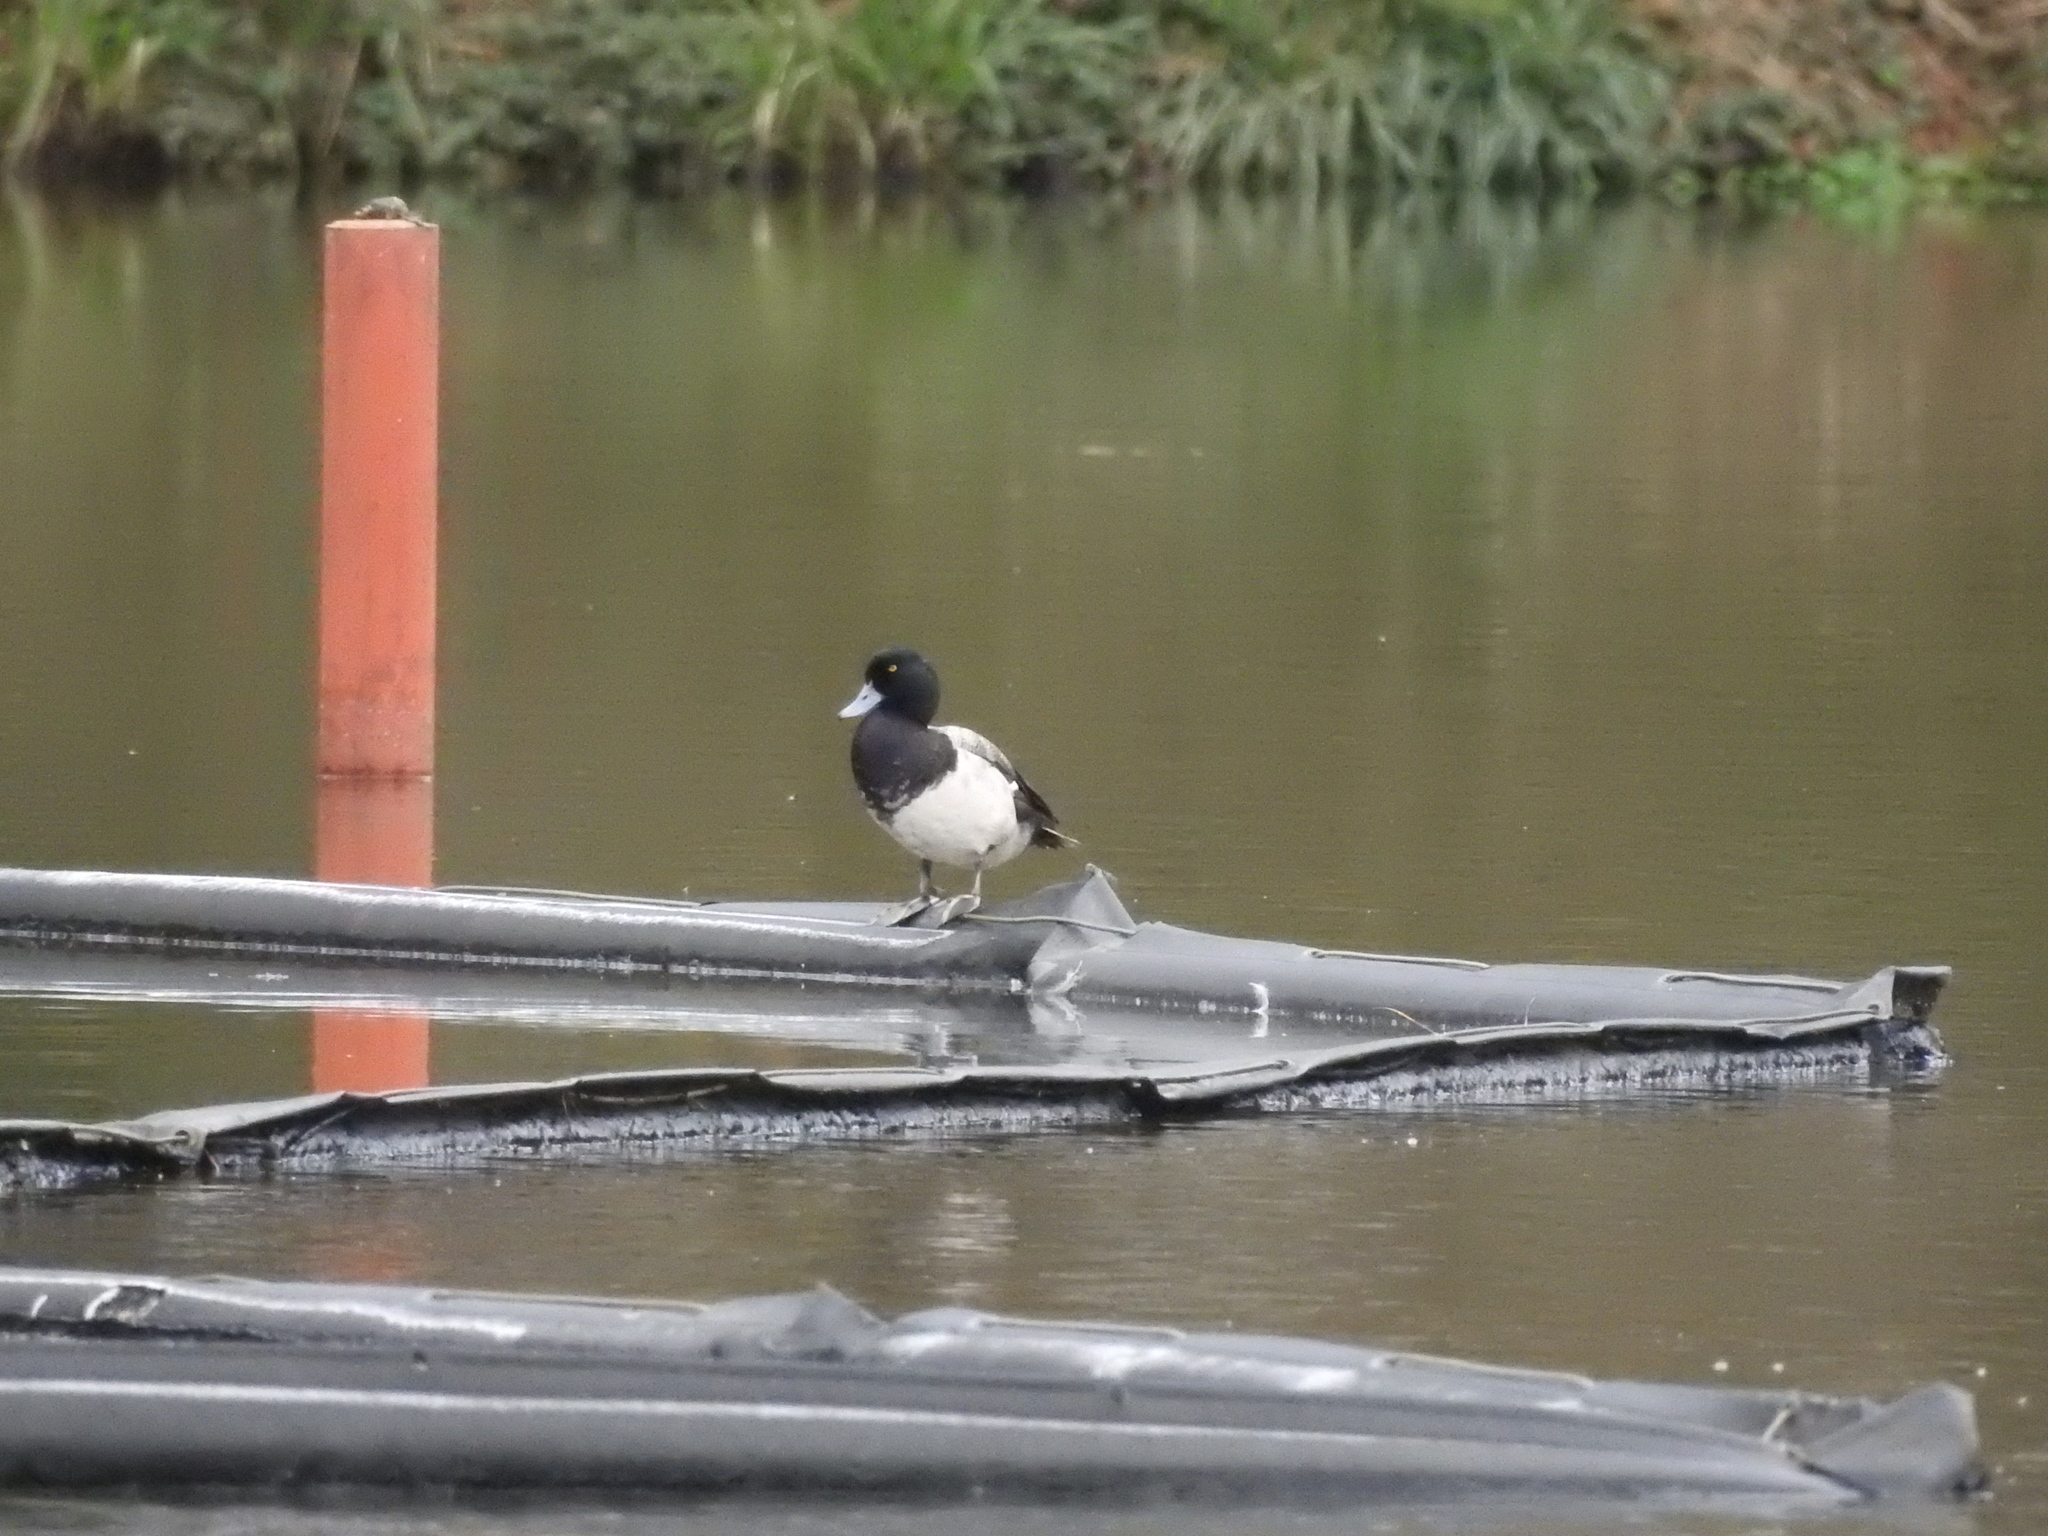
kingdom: Animalia
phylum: Chordata
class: Aves
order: Anseriformes
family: Anatidae
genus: Aythya
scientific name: Aythya affinis
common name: Lesser scaup
